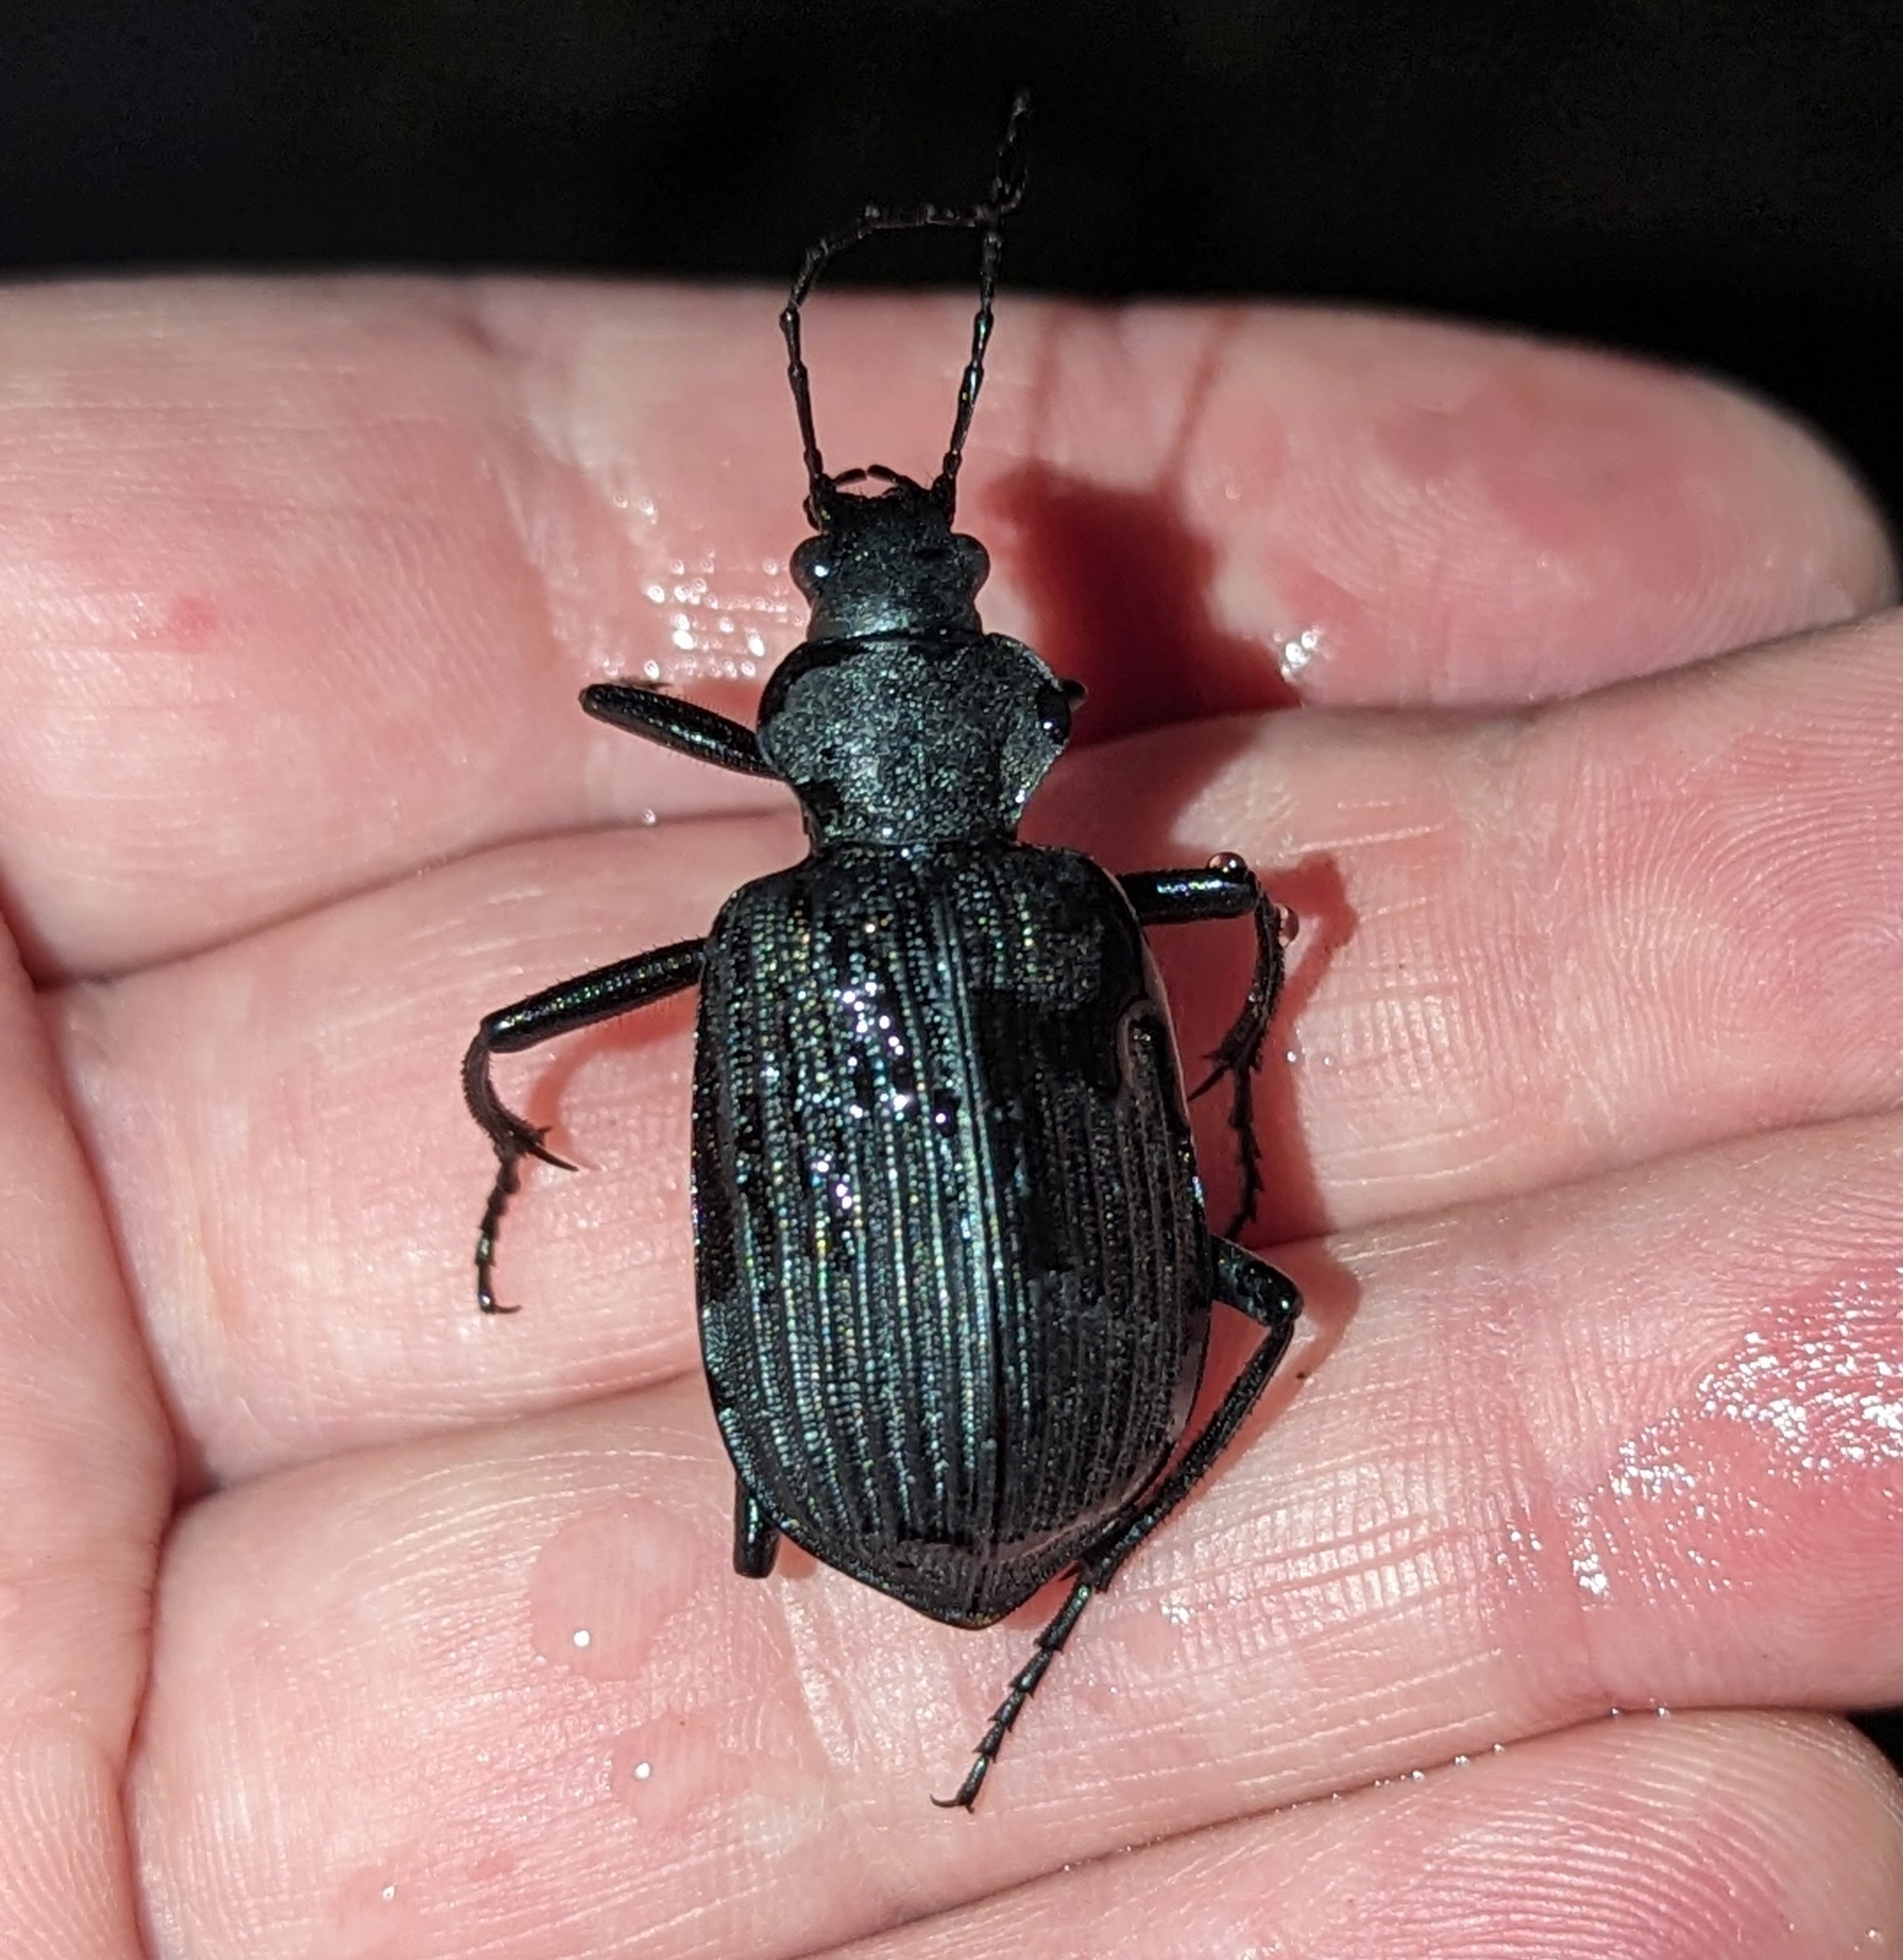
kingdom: Animalia
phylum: Arthropoda
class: Insecta
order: Coleoptera
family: Carabidae
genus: Calosoma
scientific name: Calosoma planicolle
